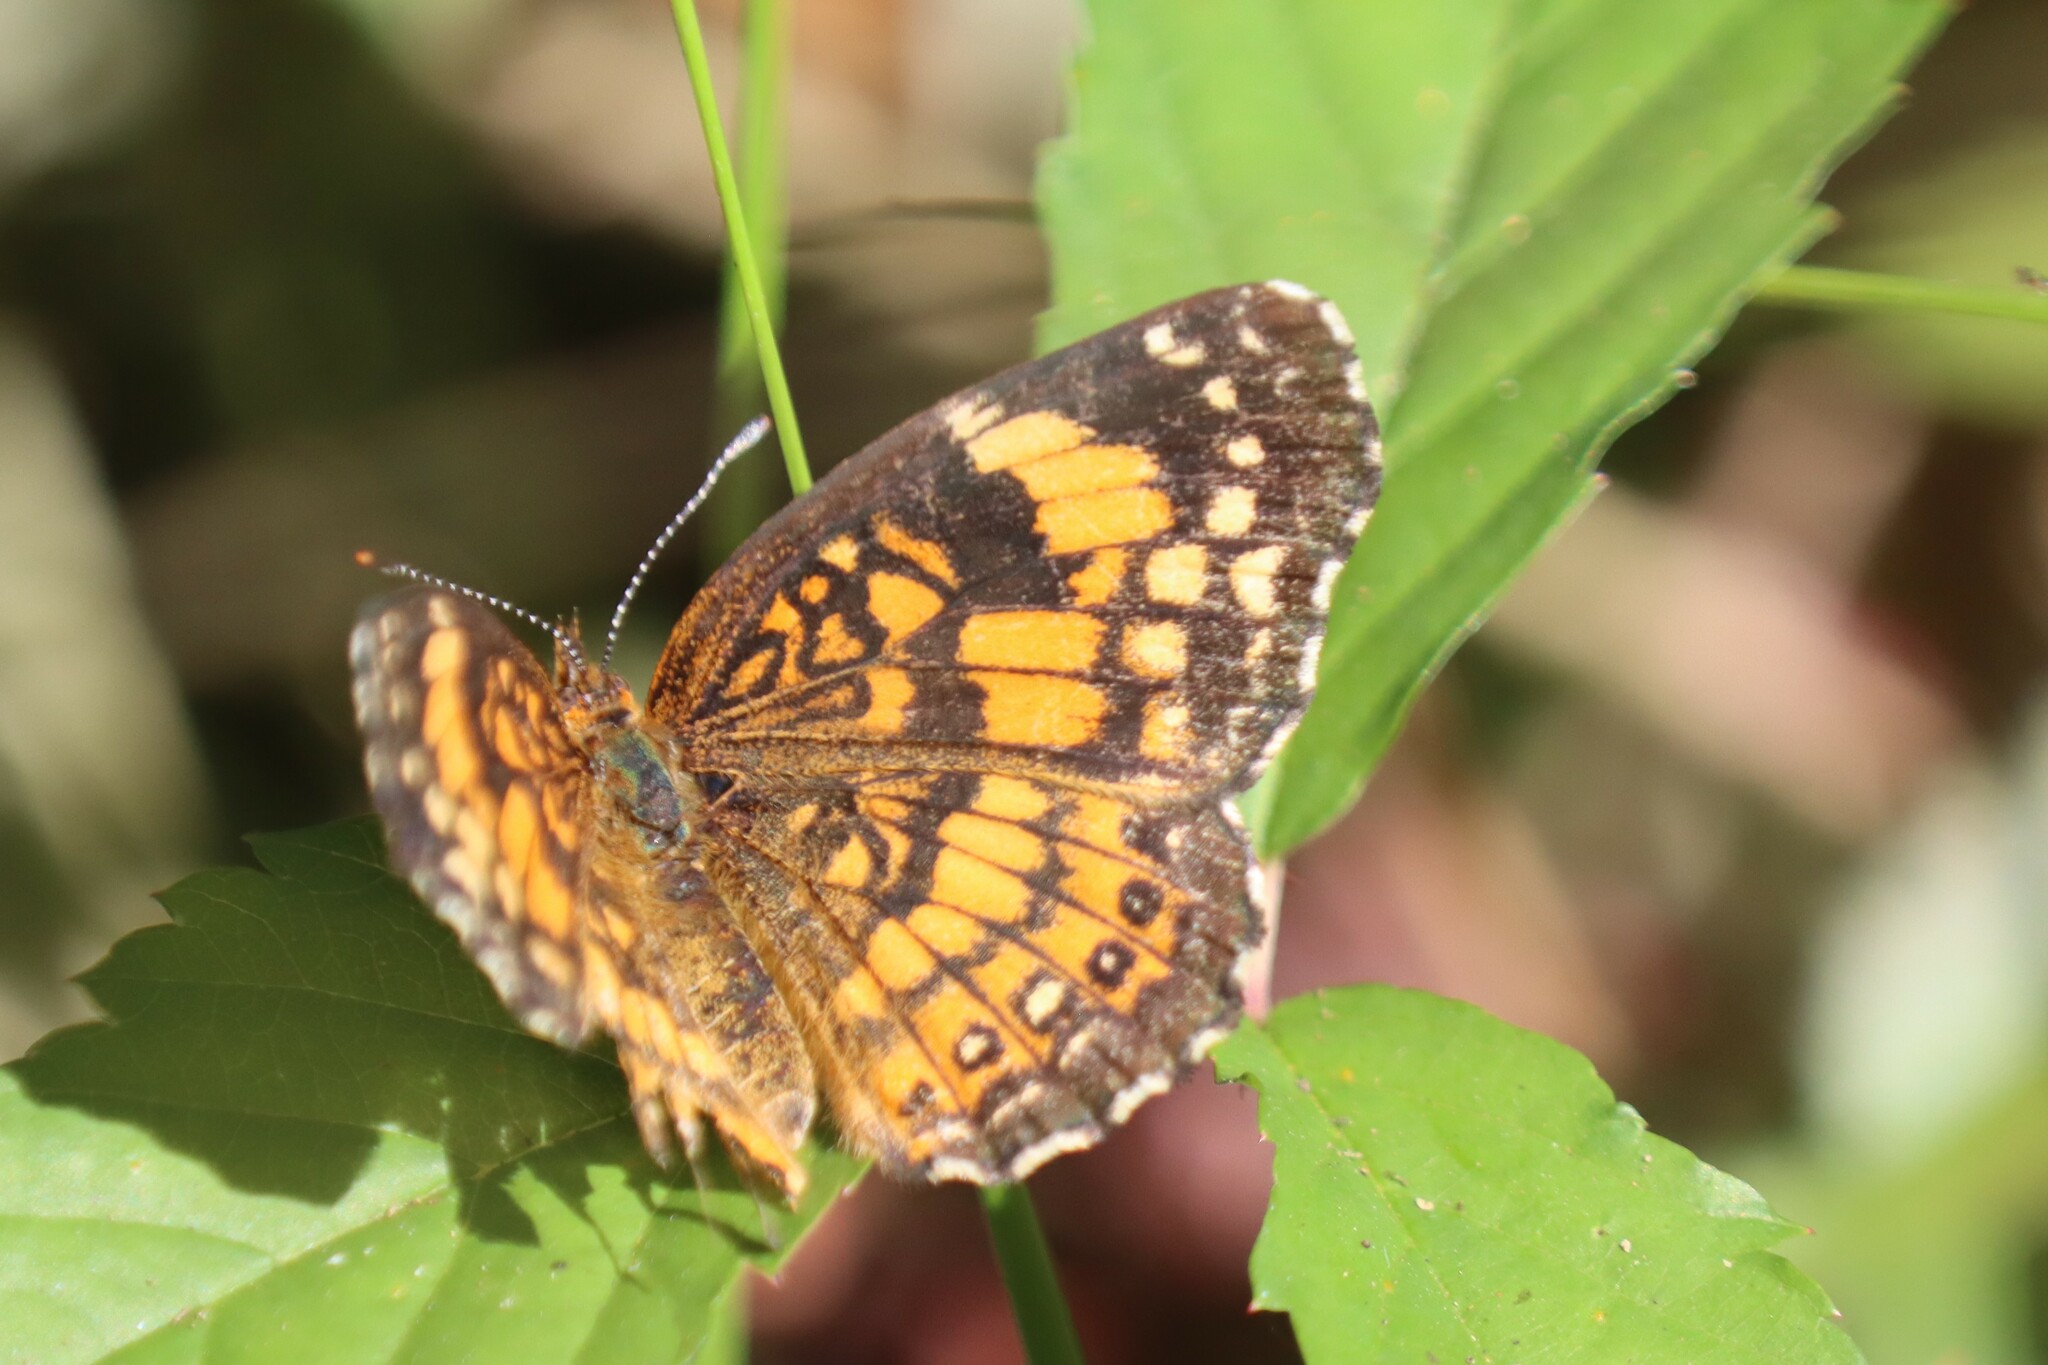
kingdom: Animalia
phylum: Arthropoda
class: Insecta
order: Lepidoptera
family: Nymphalidae
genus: Chlosyne
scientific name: Chlosyne nycteis
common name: Silvery checkerspot
